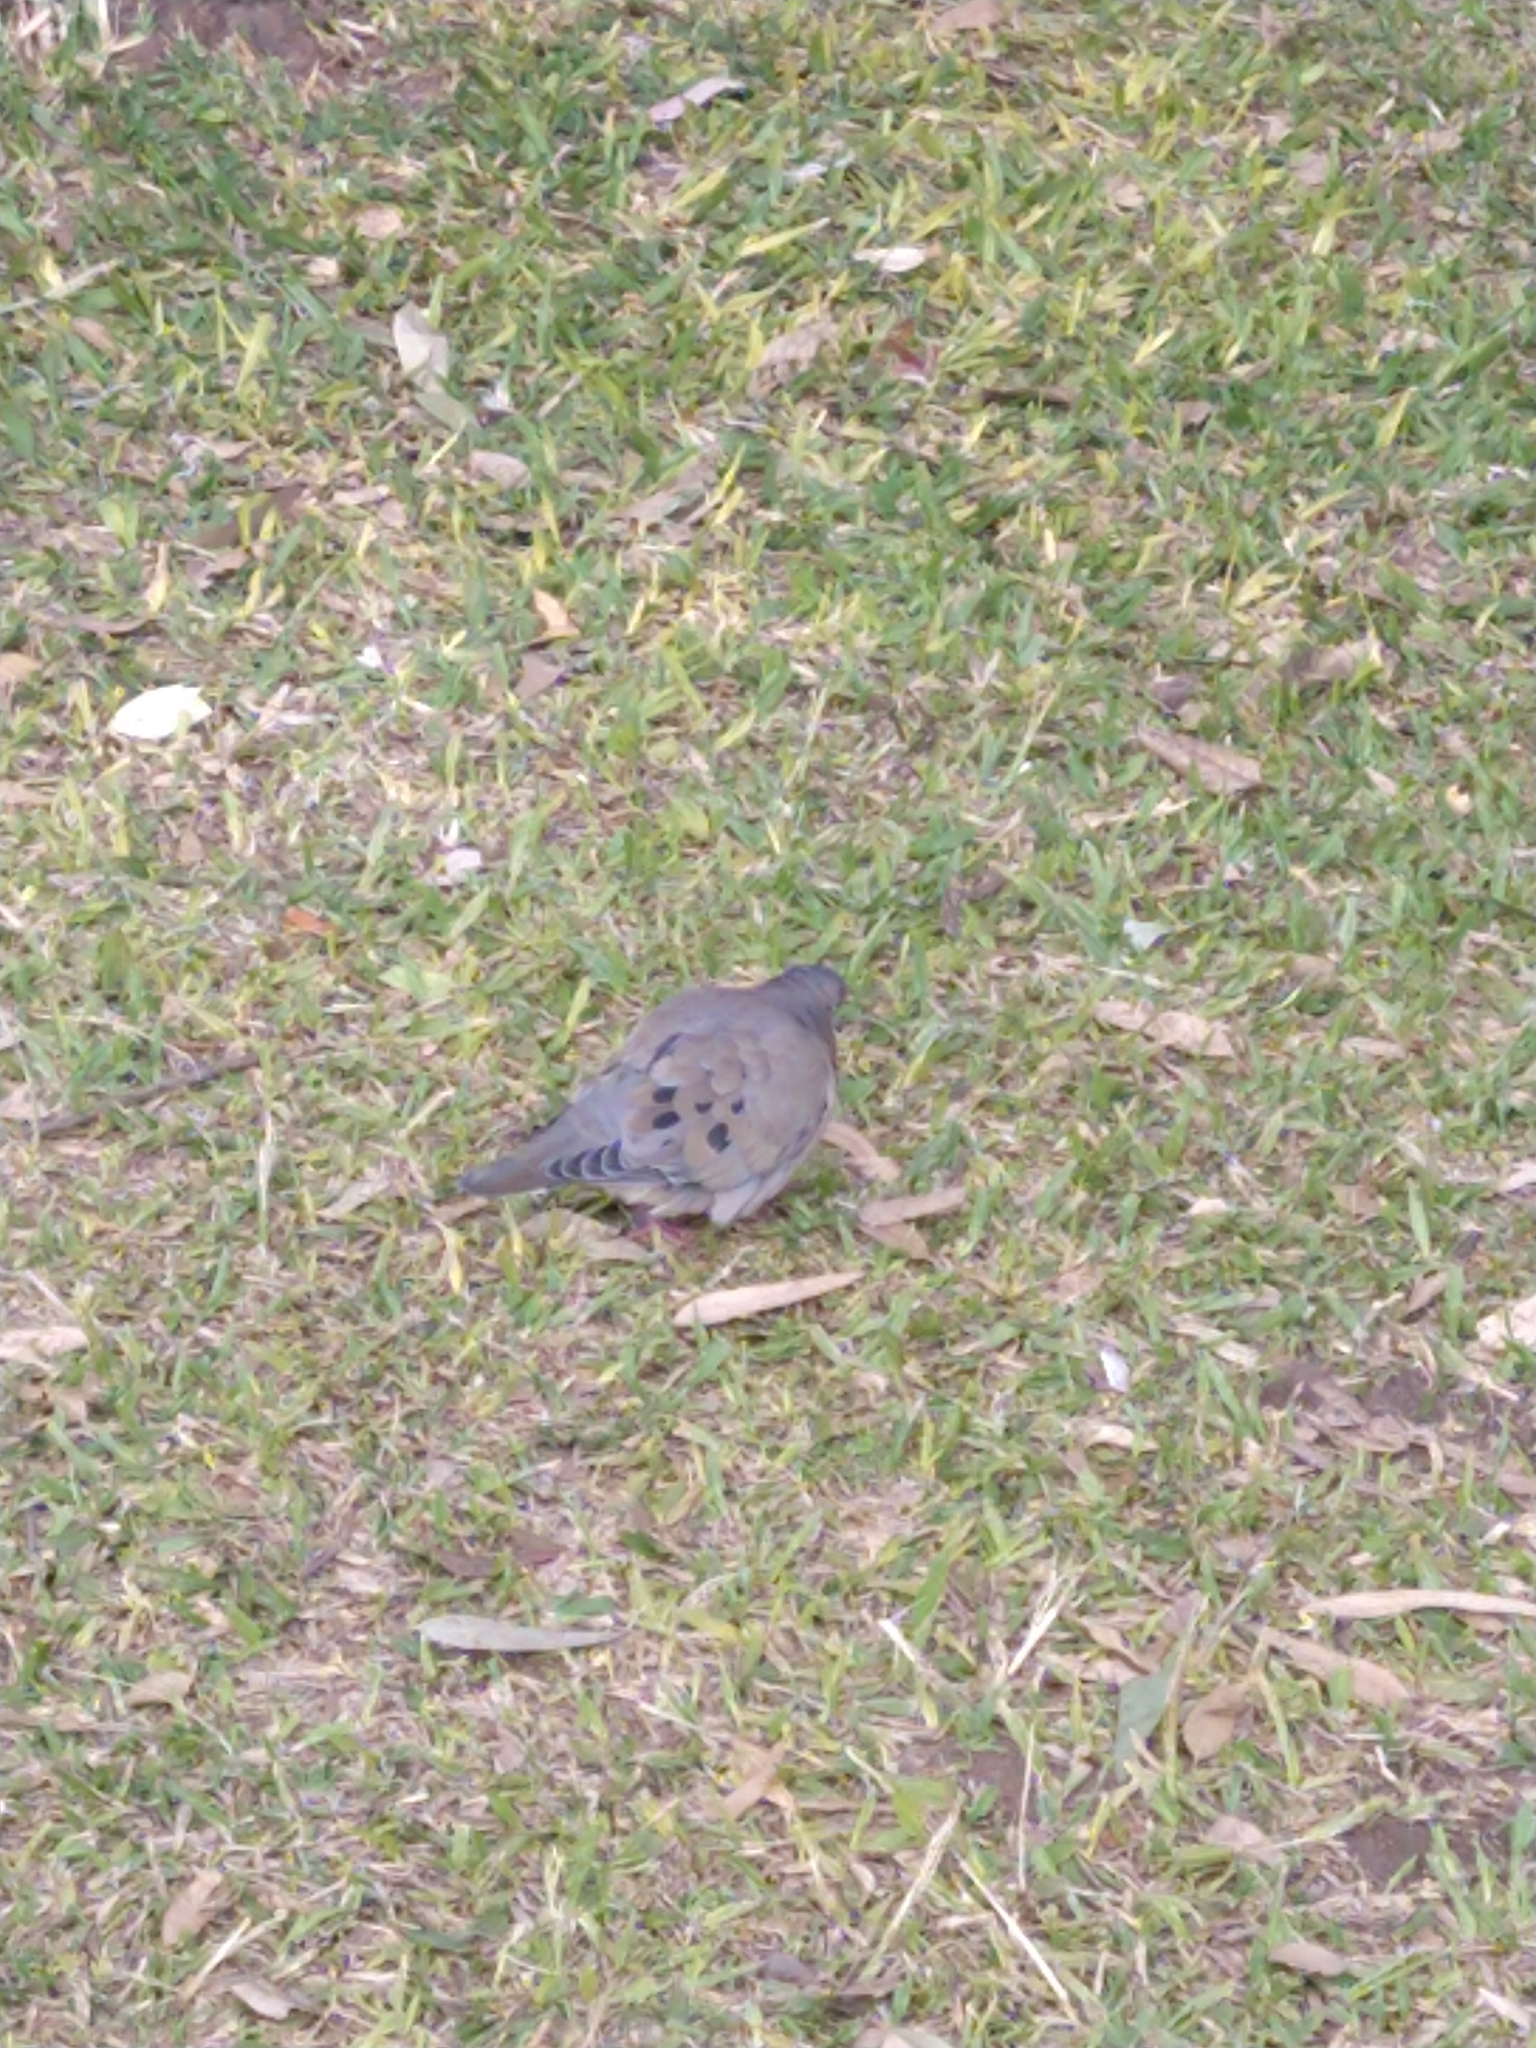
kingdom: Animalia
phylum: Chordata
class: Aves
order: Columbiformes
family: Columbidae
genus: Zenaida
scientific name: Zenaida auriculata
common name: Eared dove
